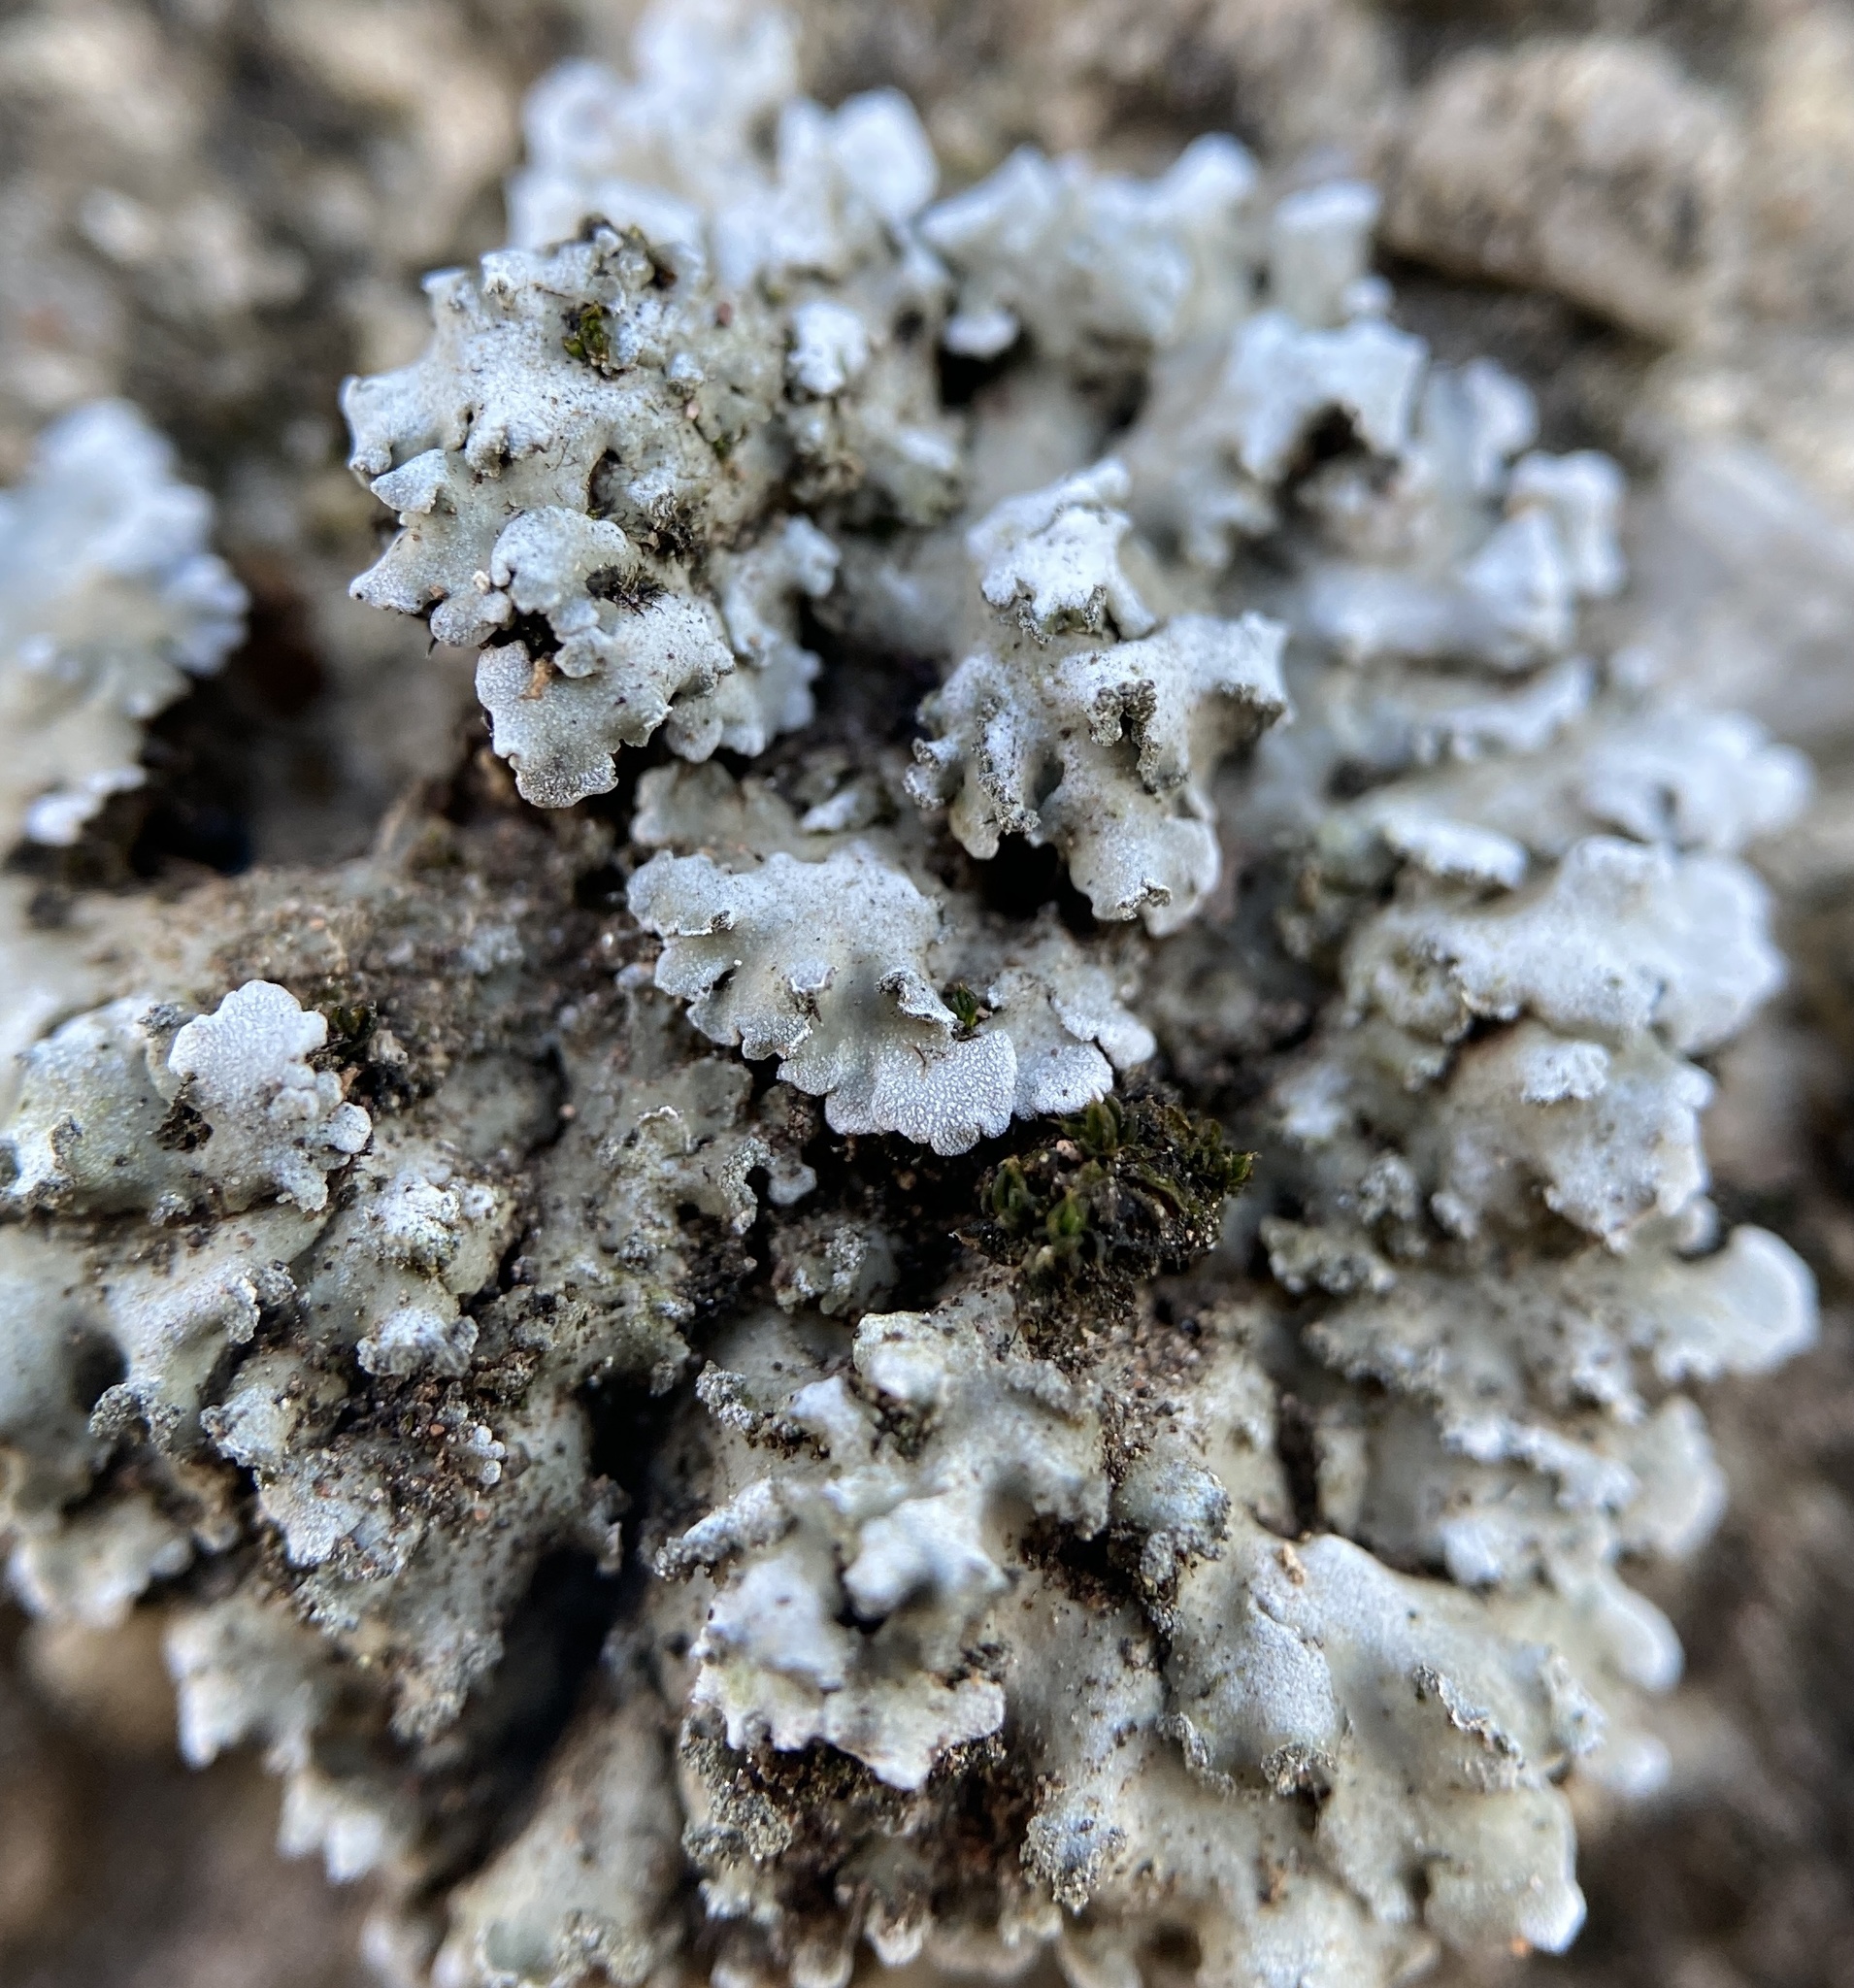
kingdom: Fungi
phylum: Ascomycota
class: Lecanoromycetes
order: Caliciales
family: Physciaceae
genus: Physconia
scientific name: Physconia detersa
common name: Bottlebrush frost lichen
